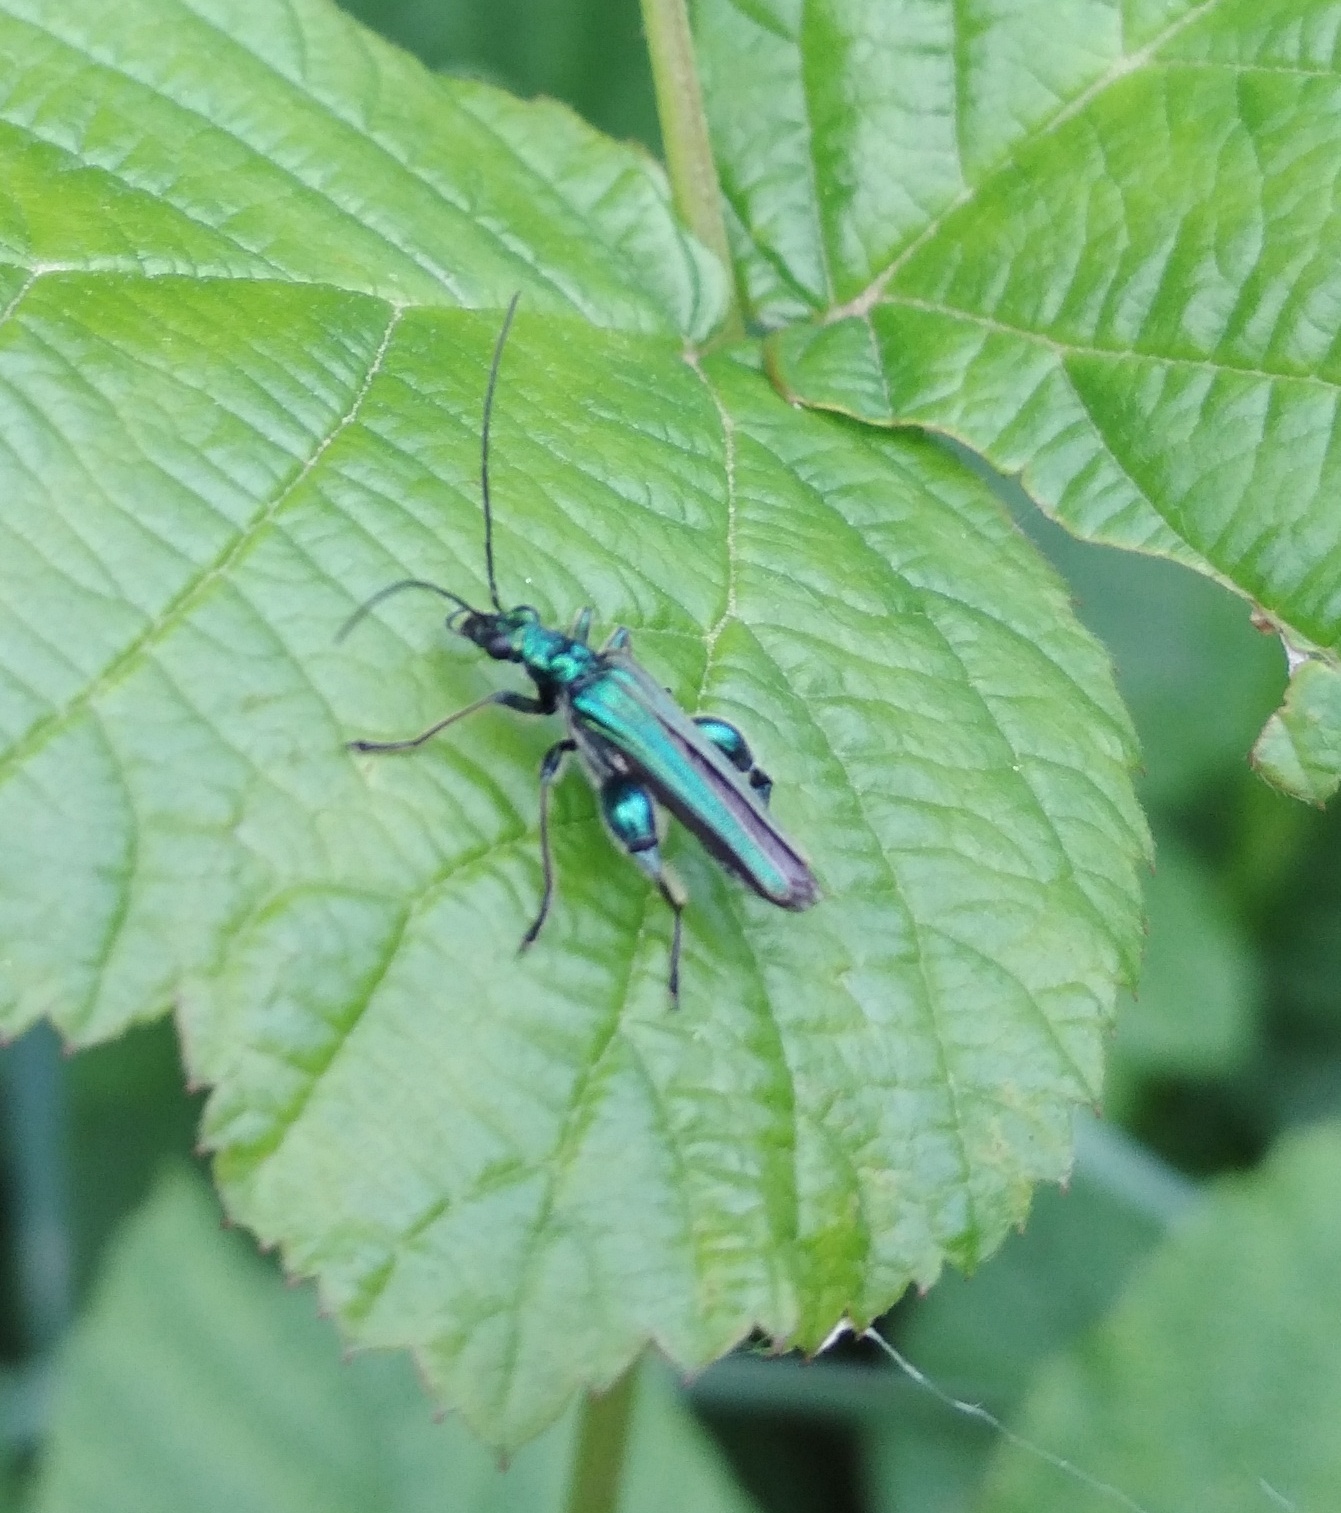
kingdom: Animalia
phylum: Arthropoda
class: Insecta
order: Coleoptera
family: Oedemeridae
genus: Oedemera
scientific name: Oedemera nobilis
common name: Swollen-thighed beetle
